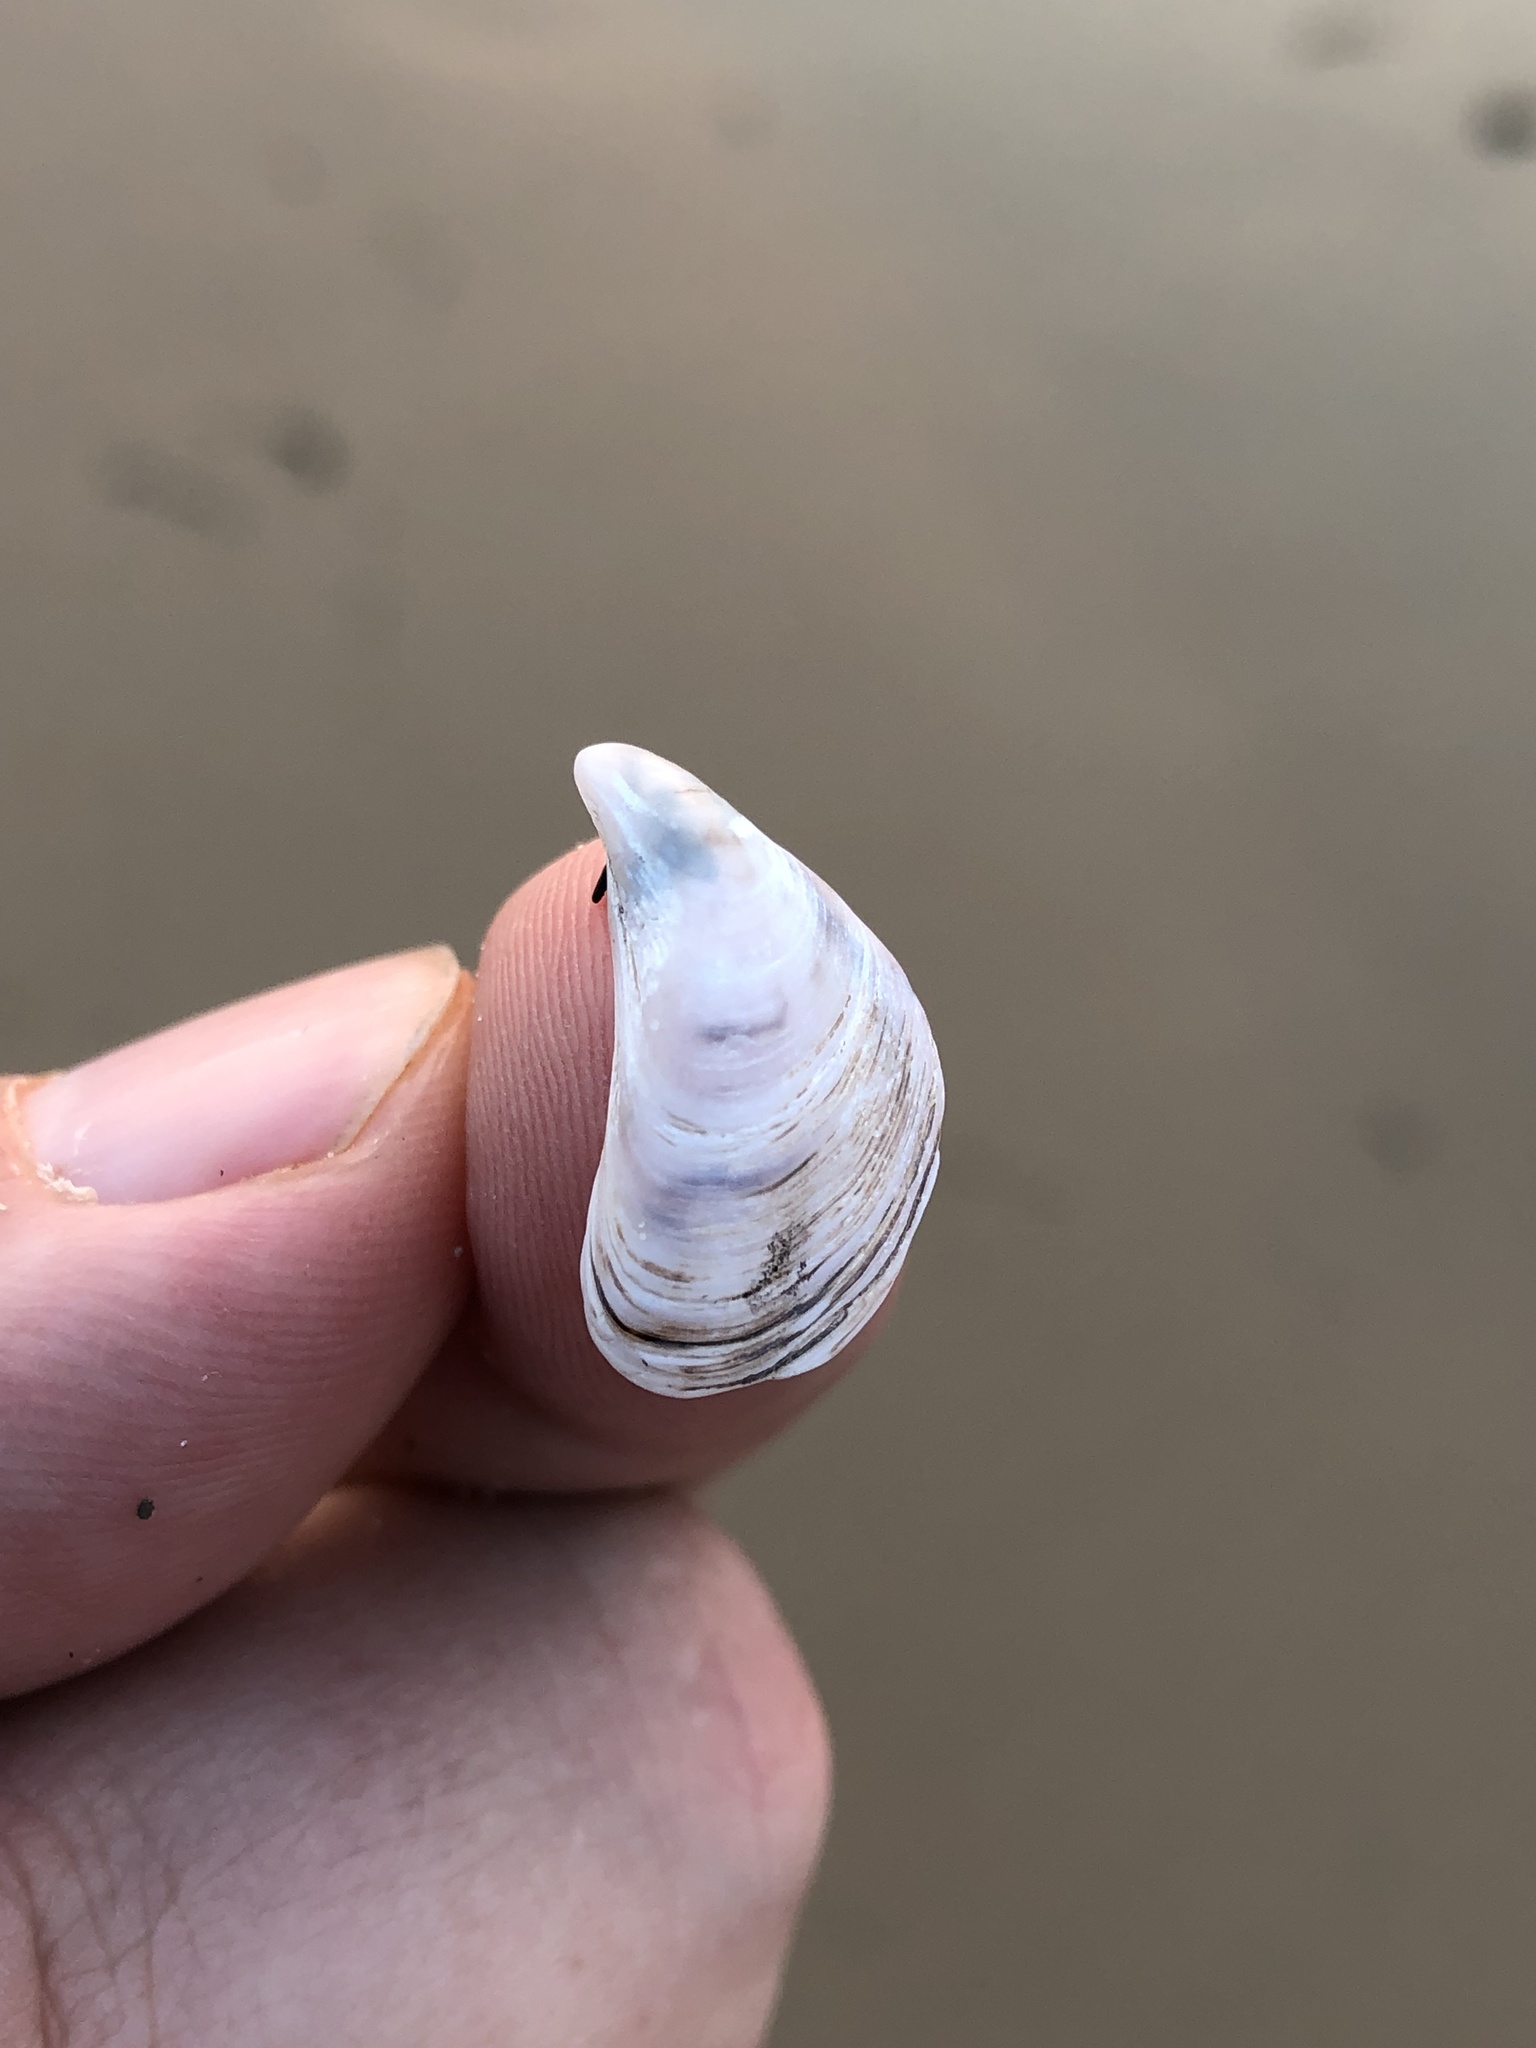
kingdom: Animalia
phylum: Mollusca
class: Bivalvia
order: Myida
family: Dreissenidae
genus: Dreissena
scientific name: Dreissena bugensis
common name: Quagga mussel
